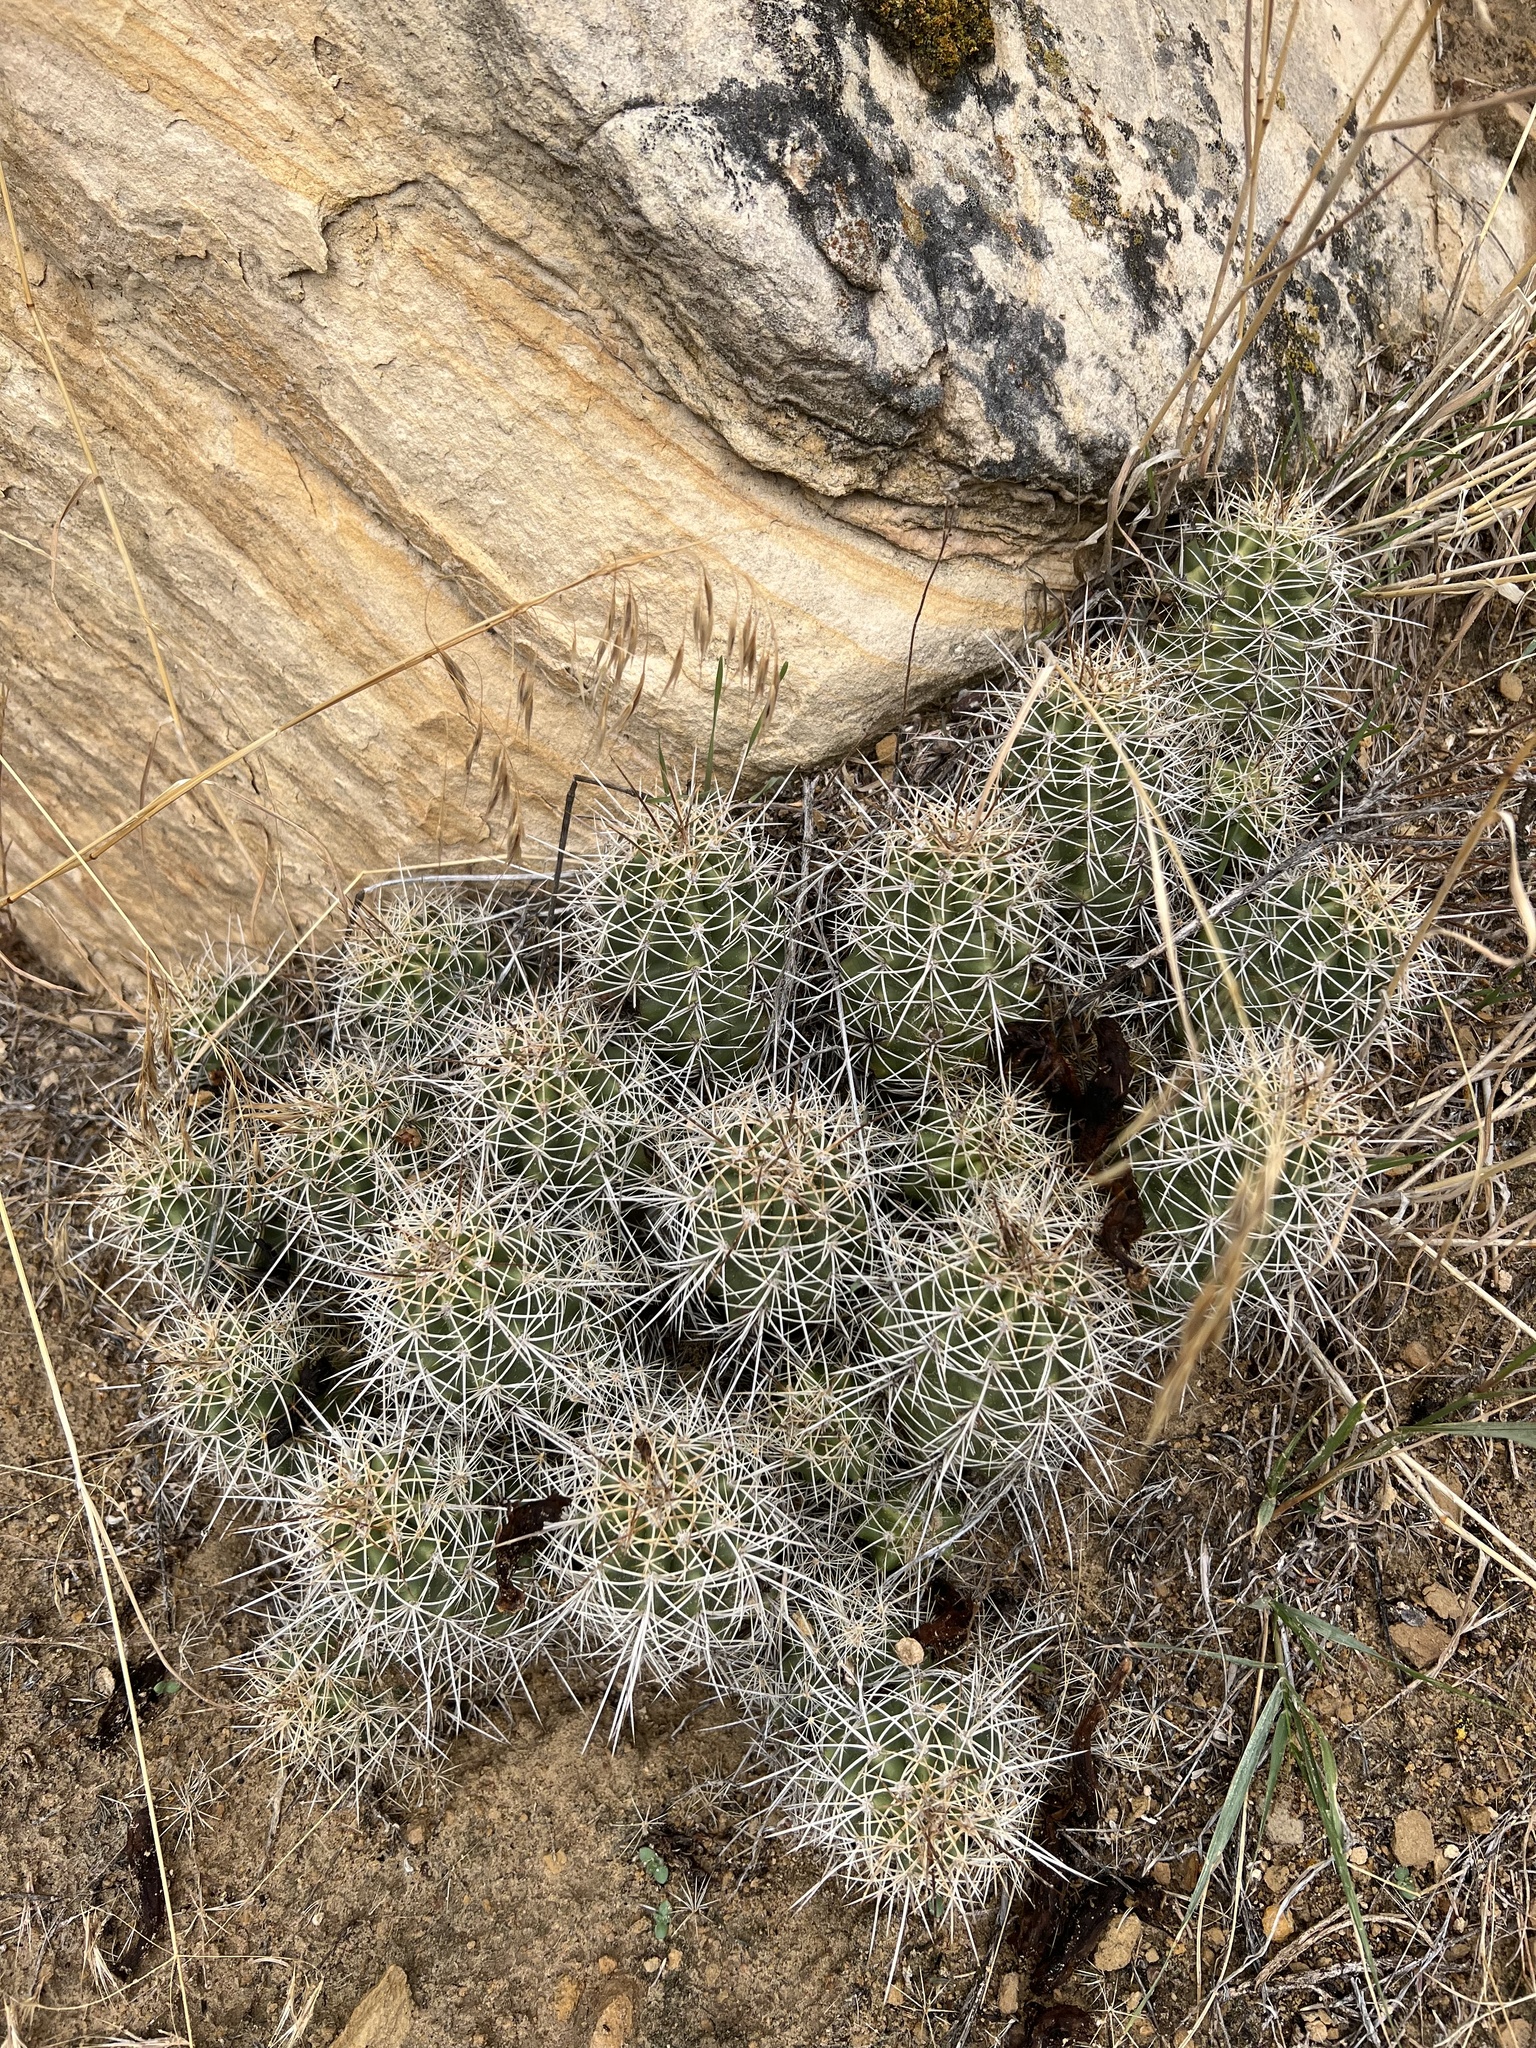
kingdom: Plantae
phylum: Tracheophyta
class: Magnoliopsida
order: Caryophyllales
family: Cactaceae
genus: Echinocereus
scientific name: Echinocereus triglochidiatus
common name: Claretcup hedgehog
